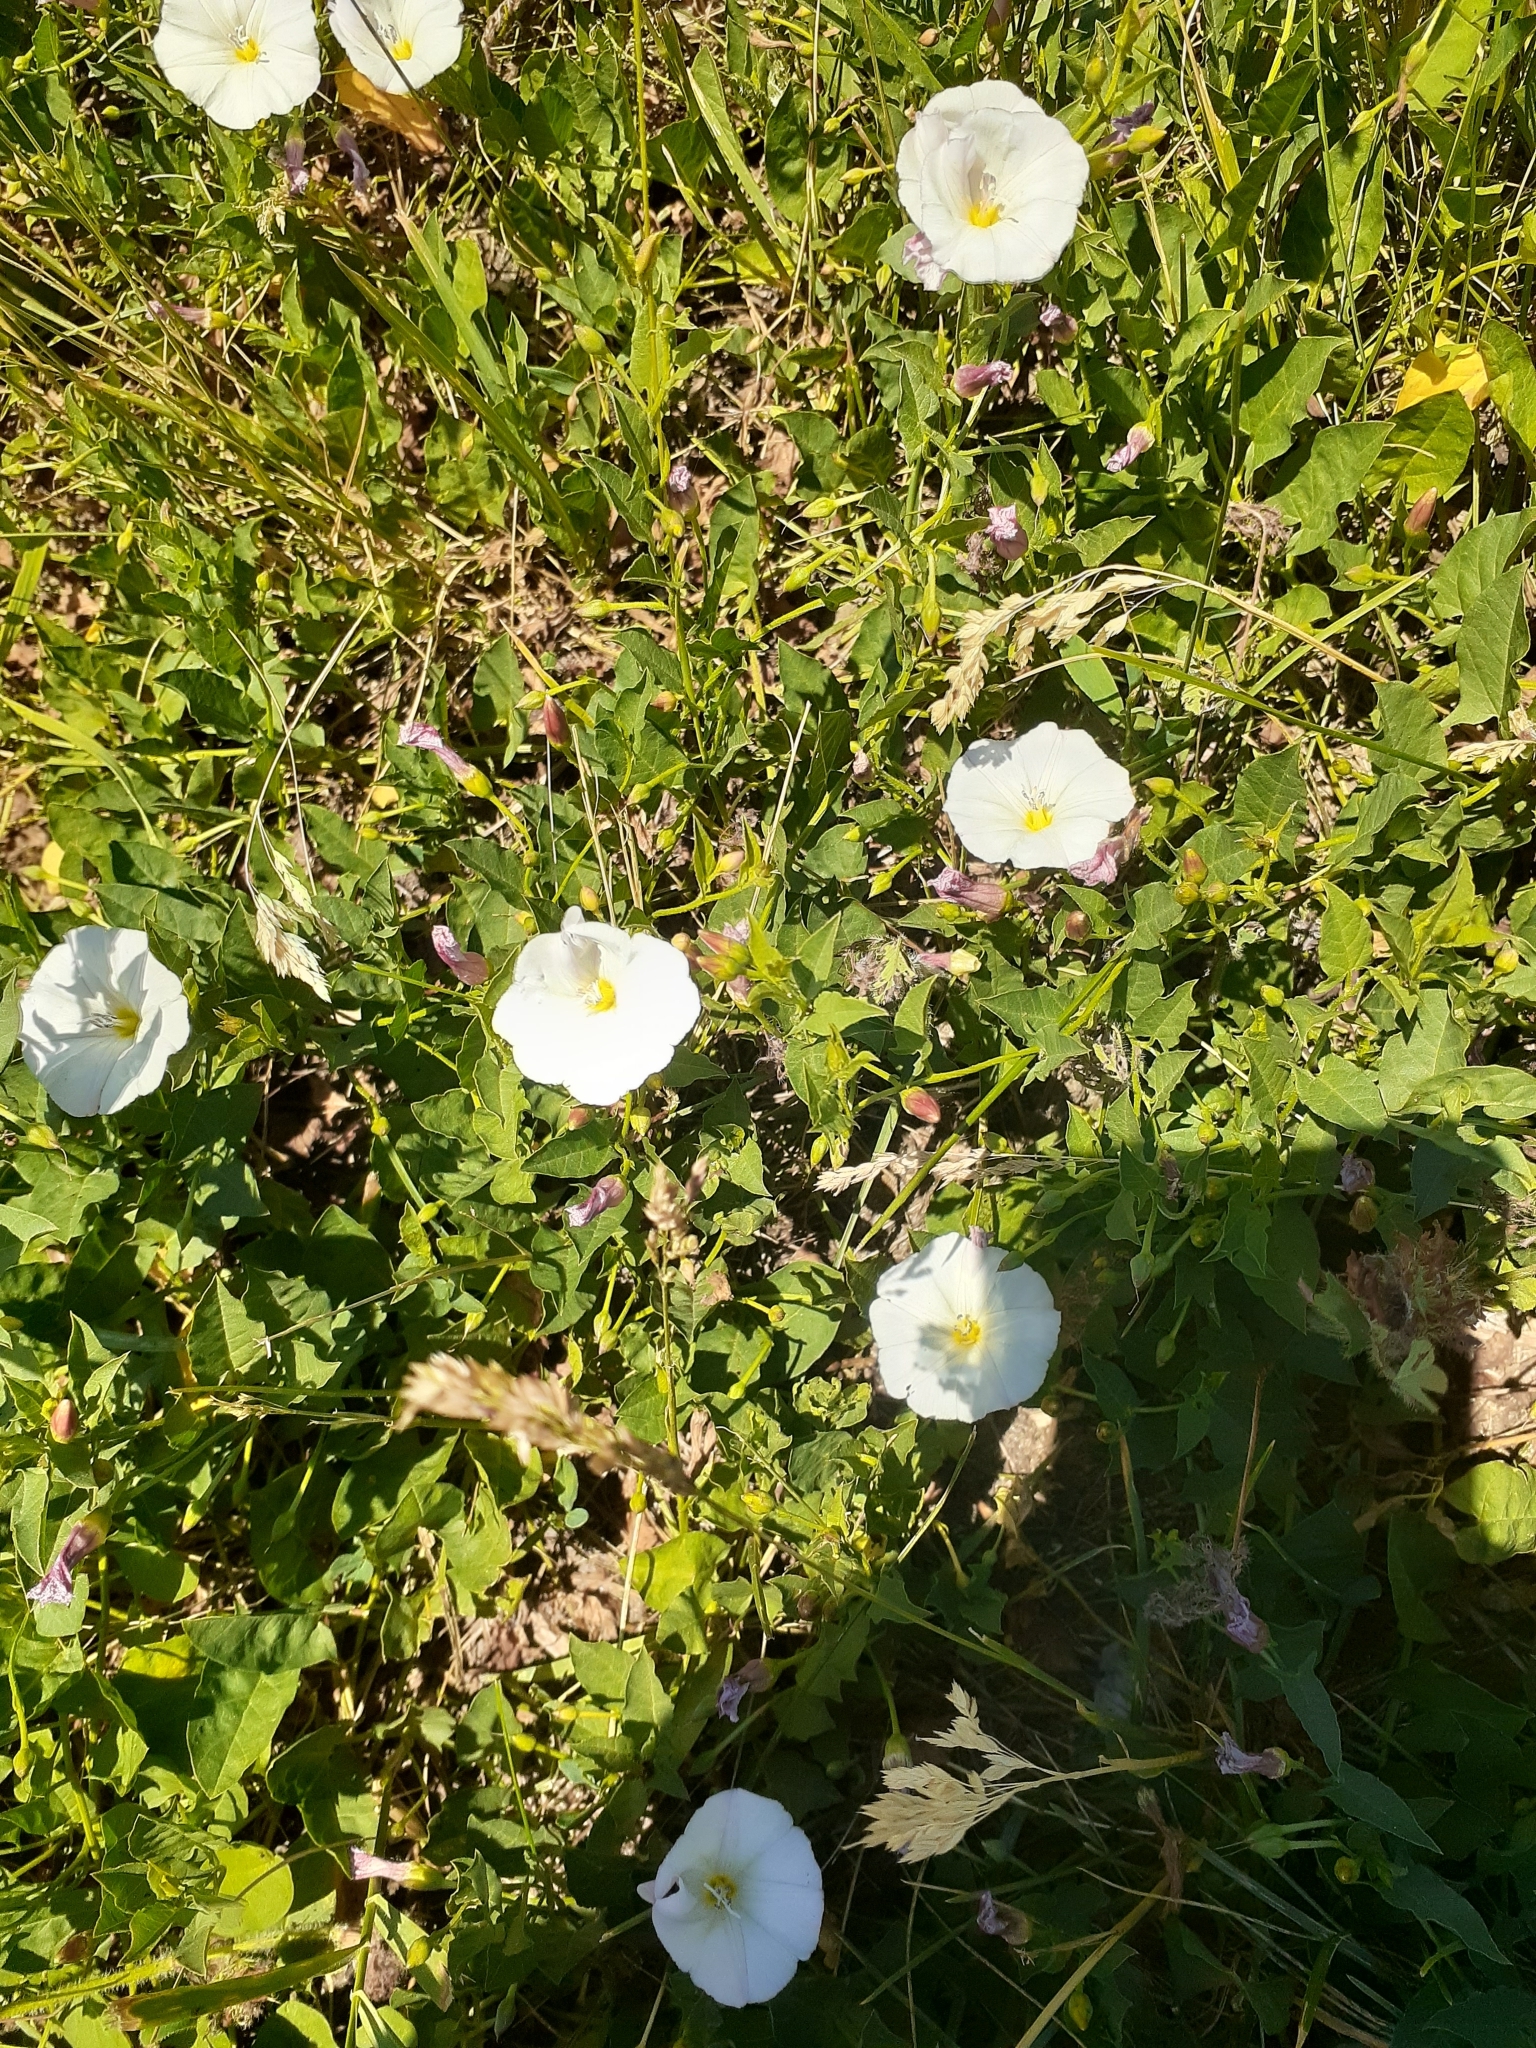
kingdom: Plantae
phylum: Tracheophyta
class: Magnoliopsida
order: Solanales
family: Convolvulaceae
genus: Convolvulus
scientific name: Convolvulus arvensis
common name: Field bindweed
